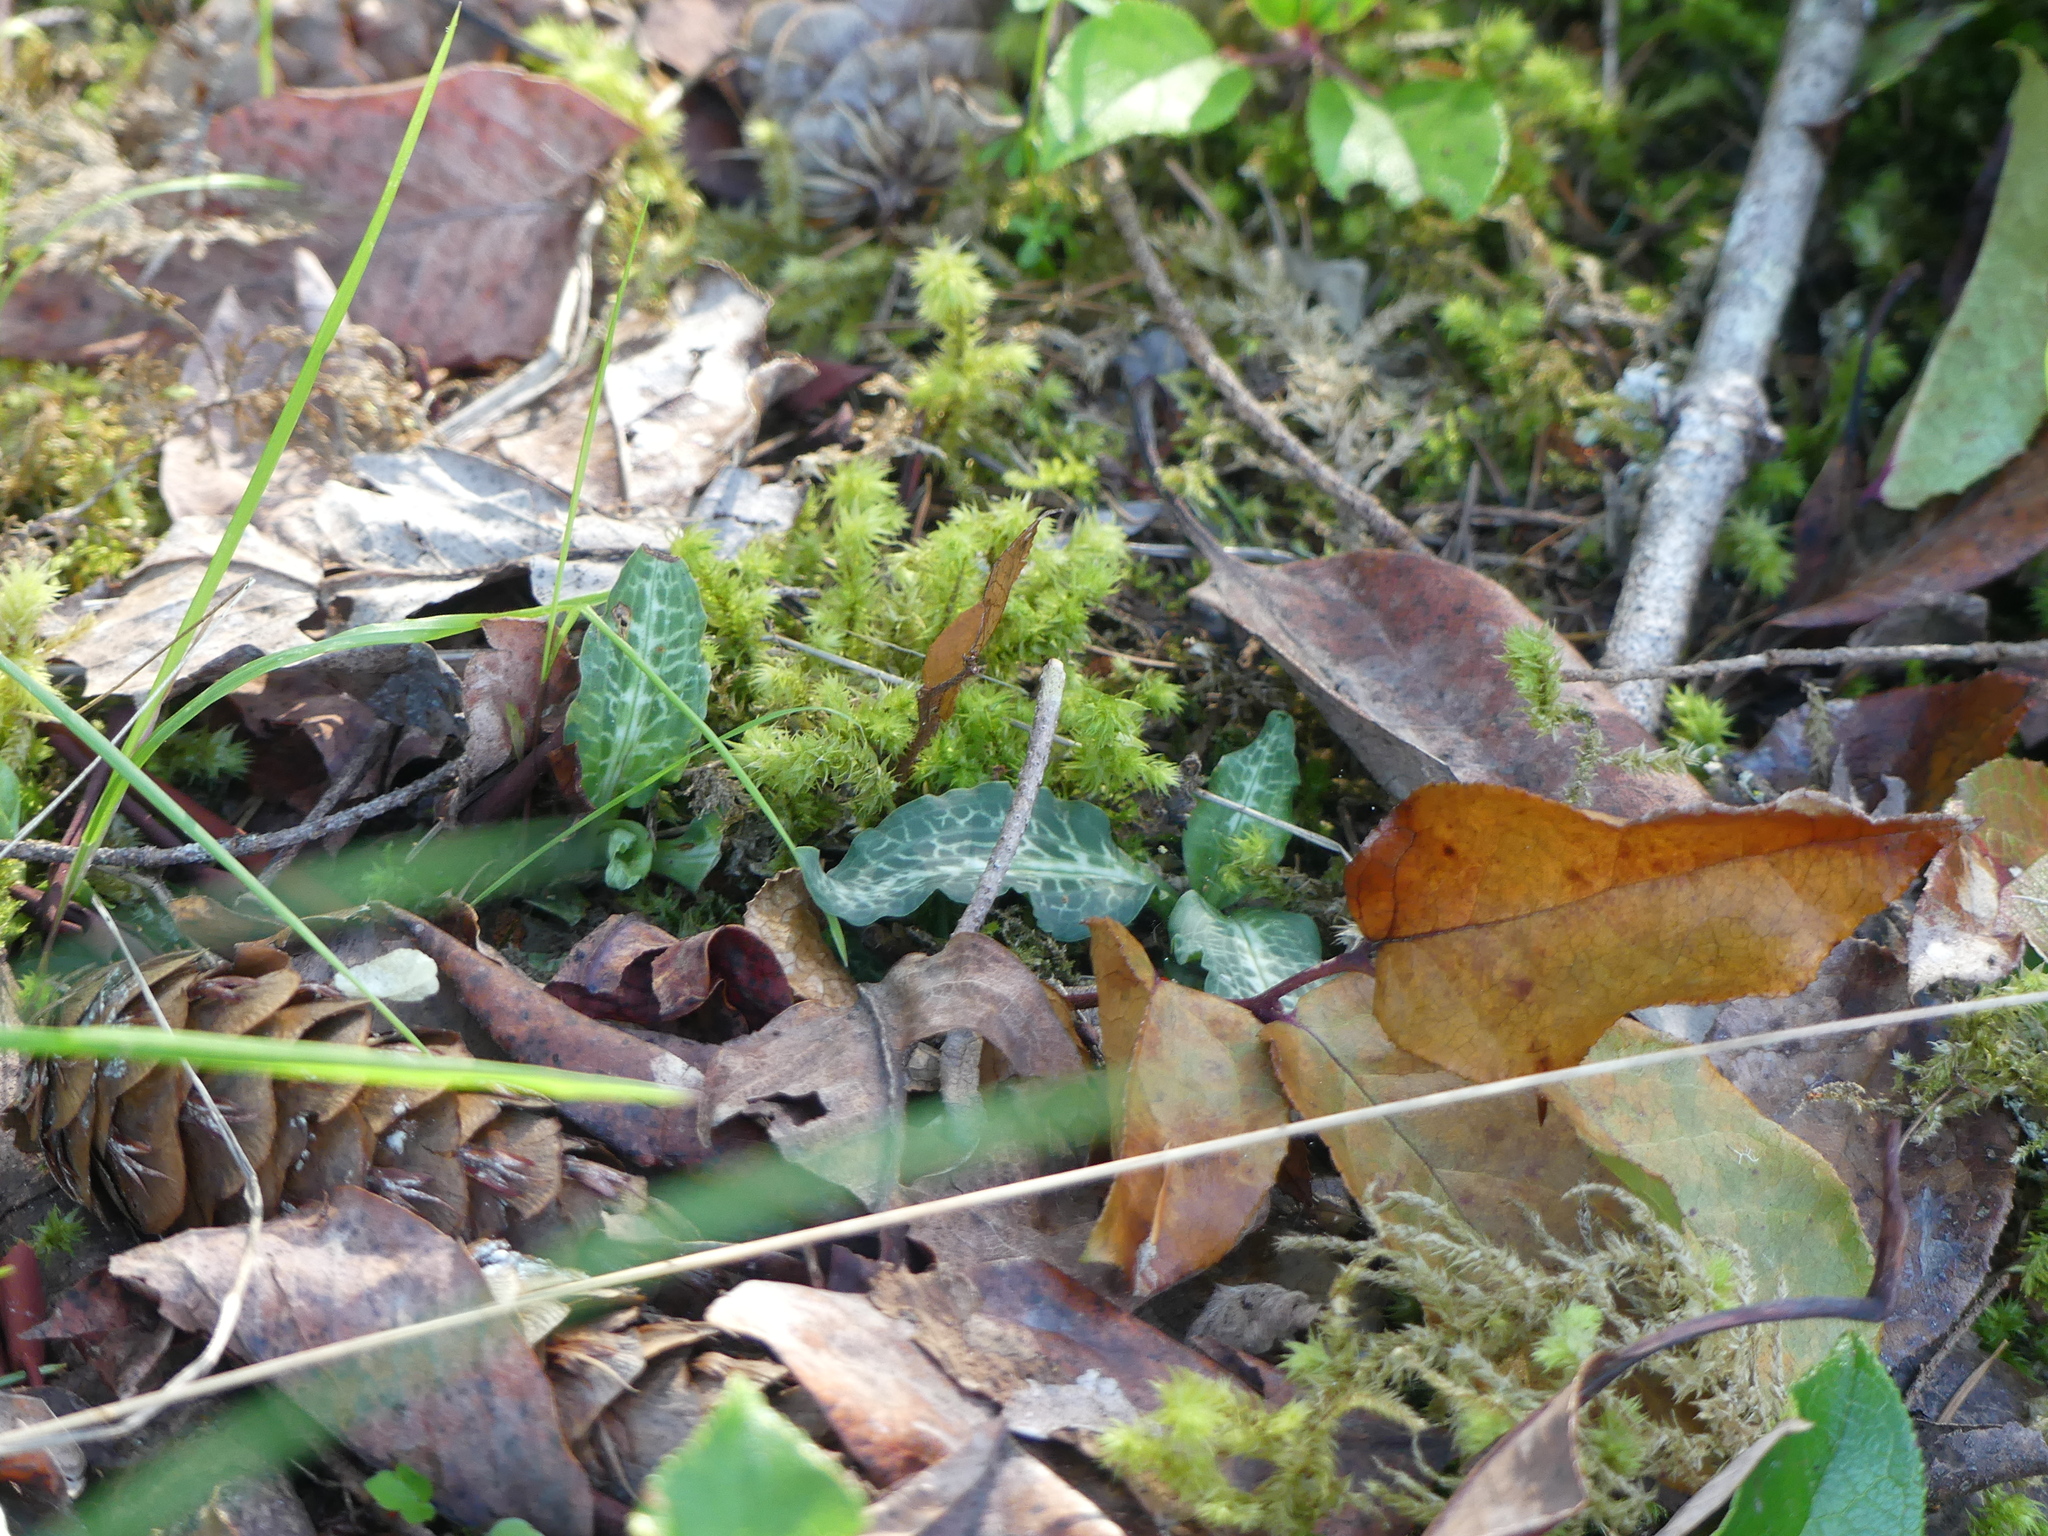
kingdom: Plantae
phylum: Tracheophyta
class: Liliopsida
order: Asparagales
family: Orchidaceae
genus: Goodyera
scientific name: Goodyera oblongifolia
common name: Giant rattlesnake-plantain
